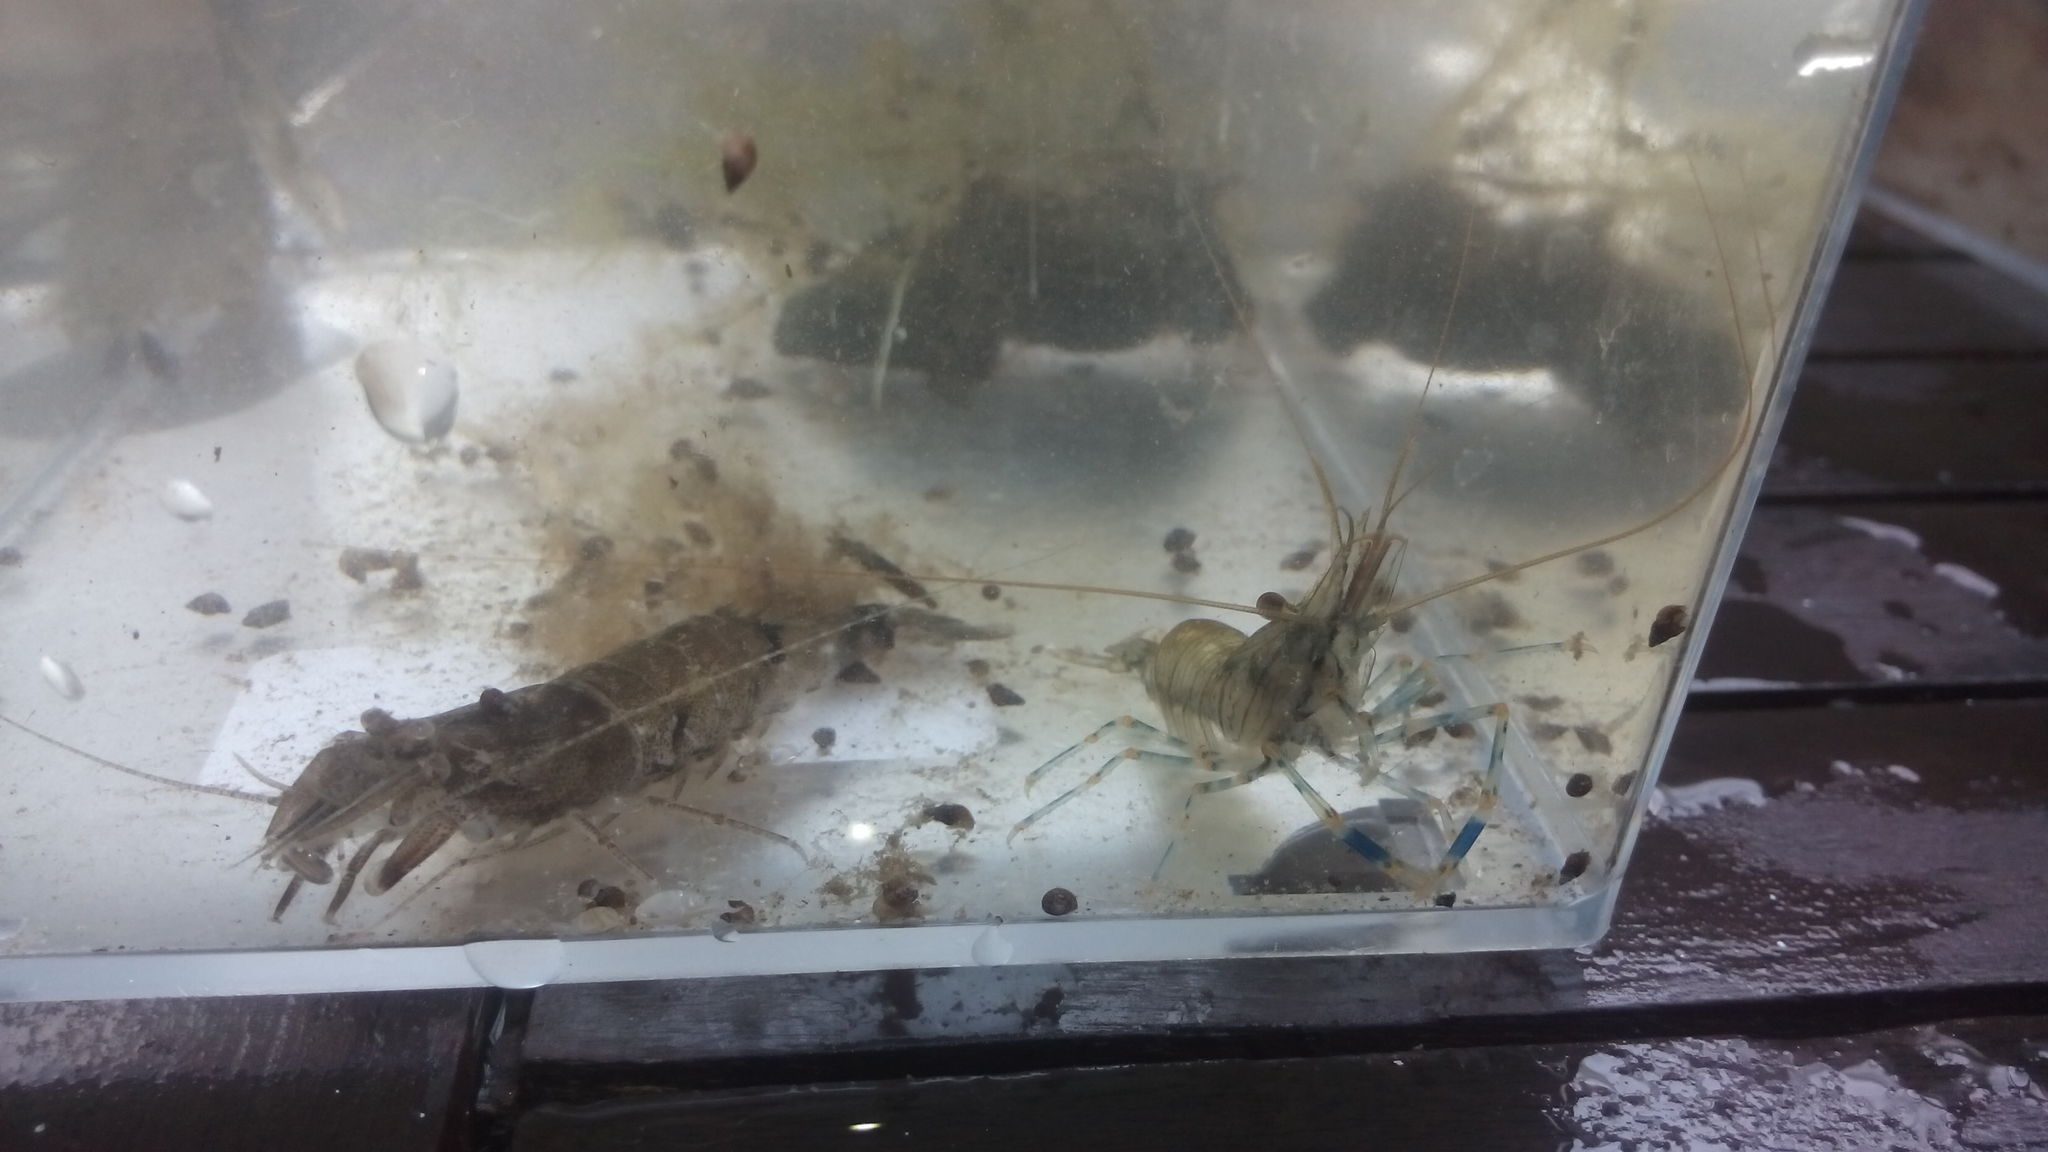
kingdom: Animalia
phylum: Arthropoda
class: Malacostraca
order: Decapoda
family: Palaemonidae
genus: Palaemon
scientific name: Palaemon elegans
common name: Grass prawm
